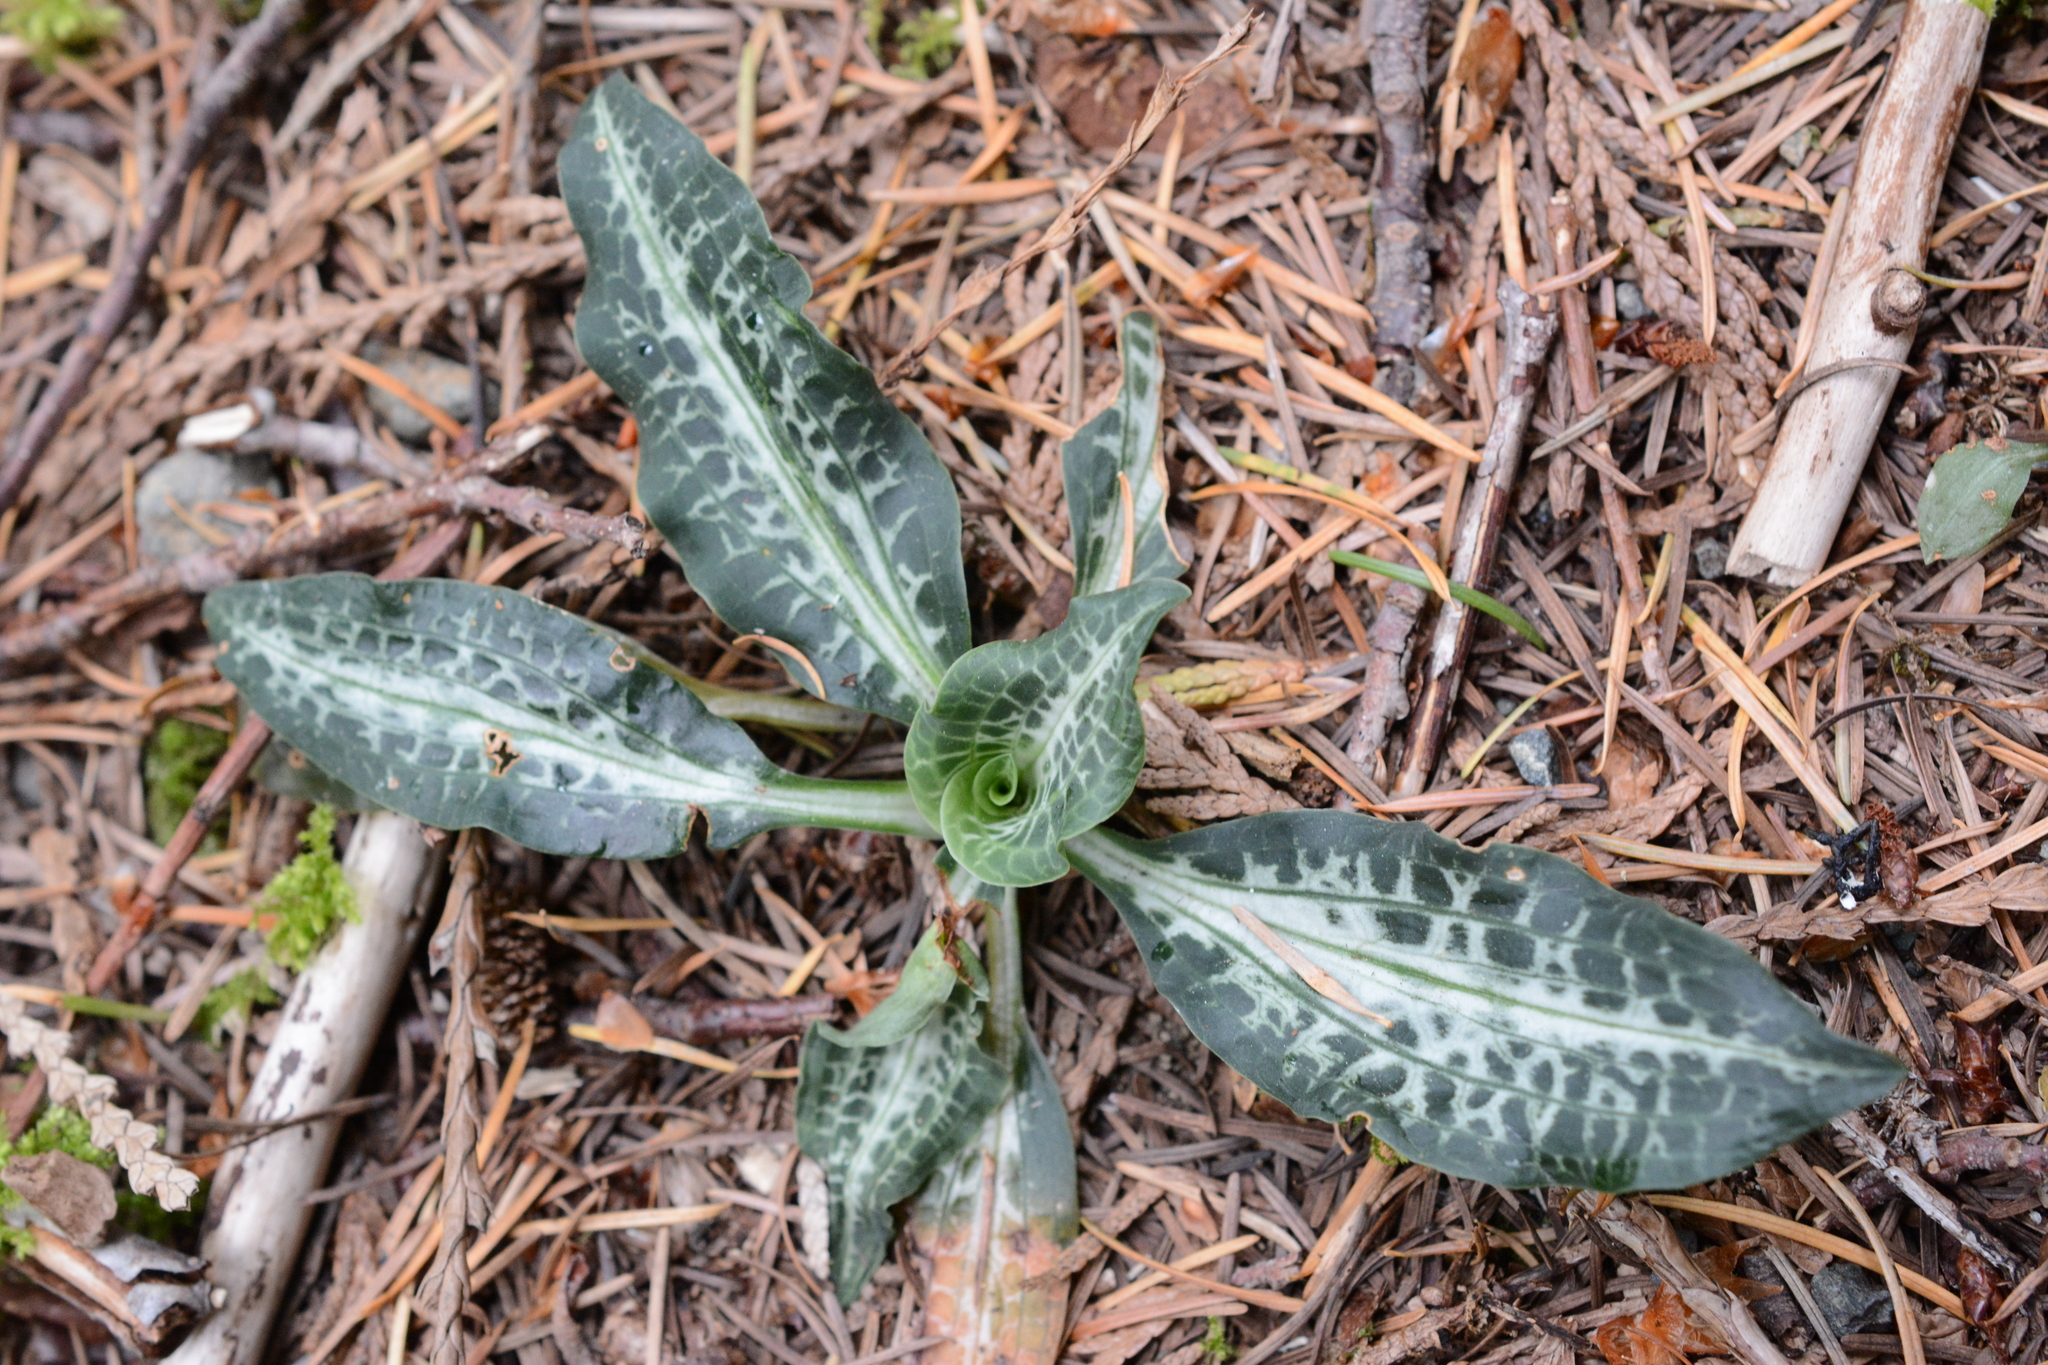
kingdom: Plantae
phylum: Tracheophyta
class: Liliopsida
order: Asparagales
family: Orchidaceae
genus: Goodyera
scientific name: Goodyera oblongifolia
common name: Giant rattlesnake-plantain
